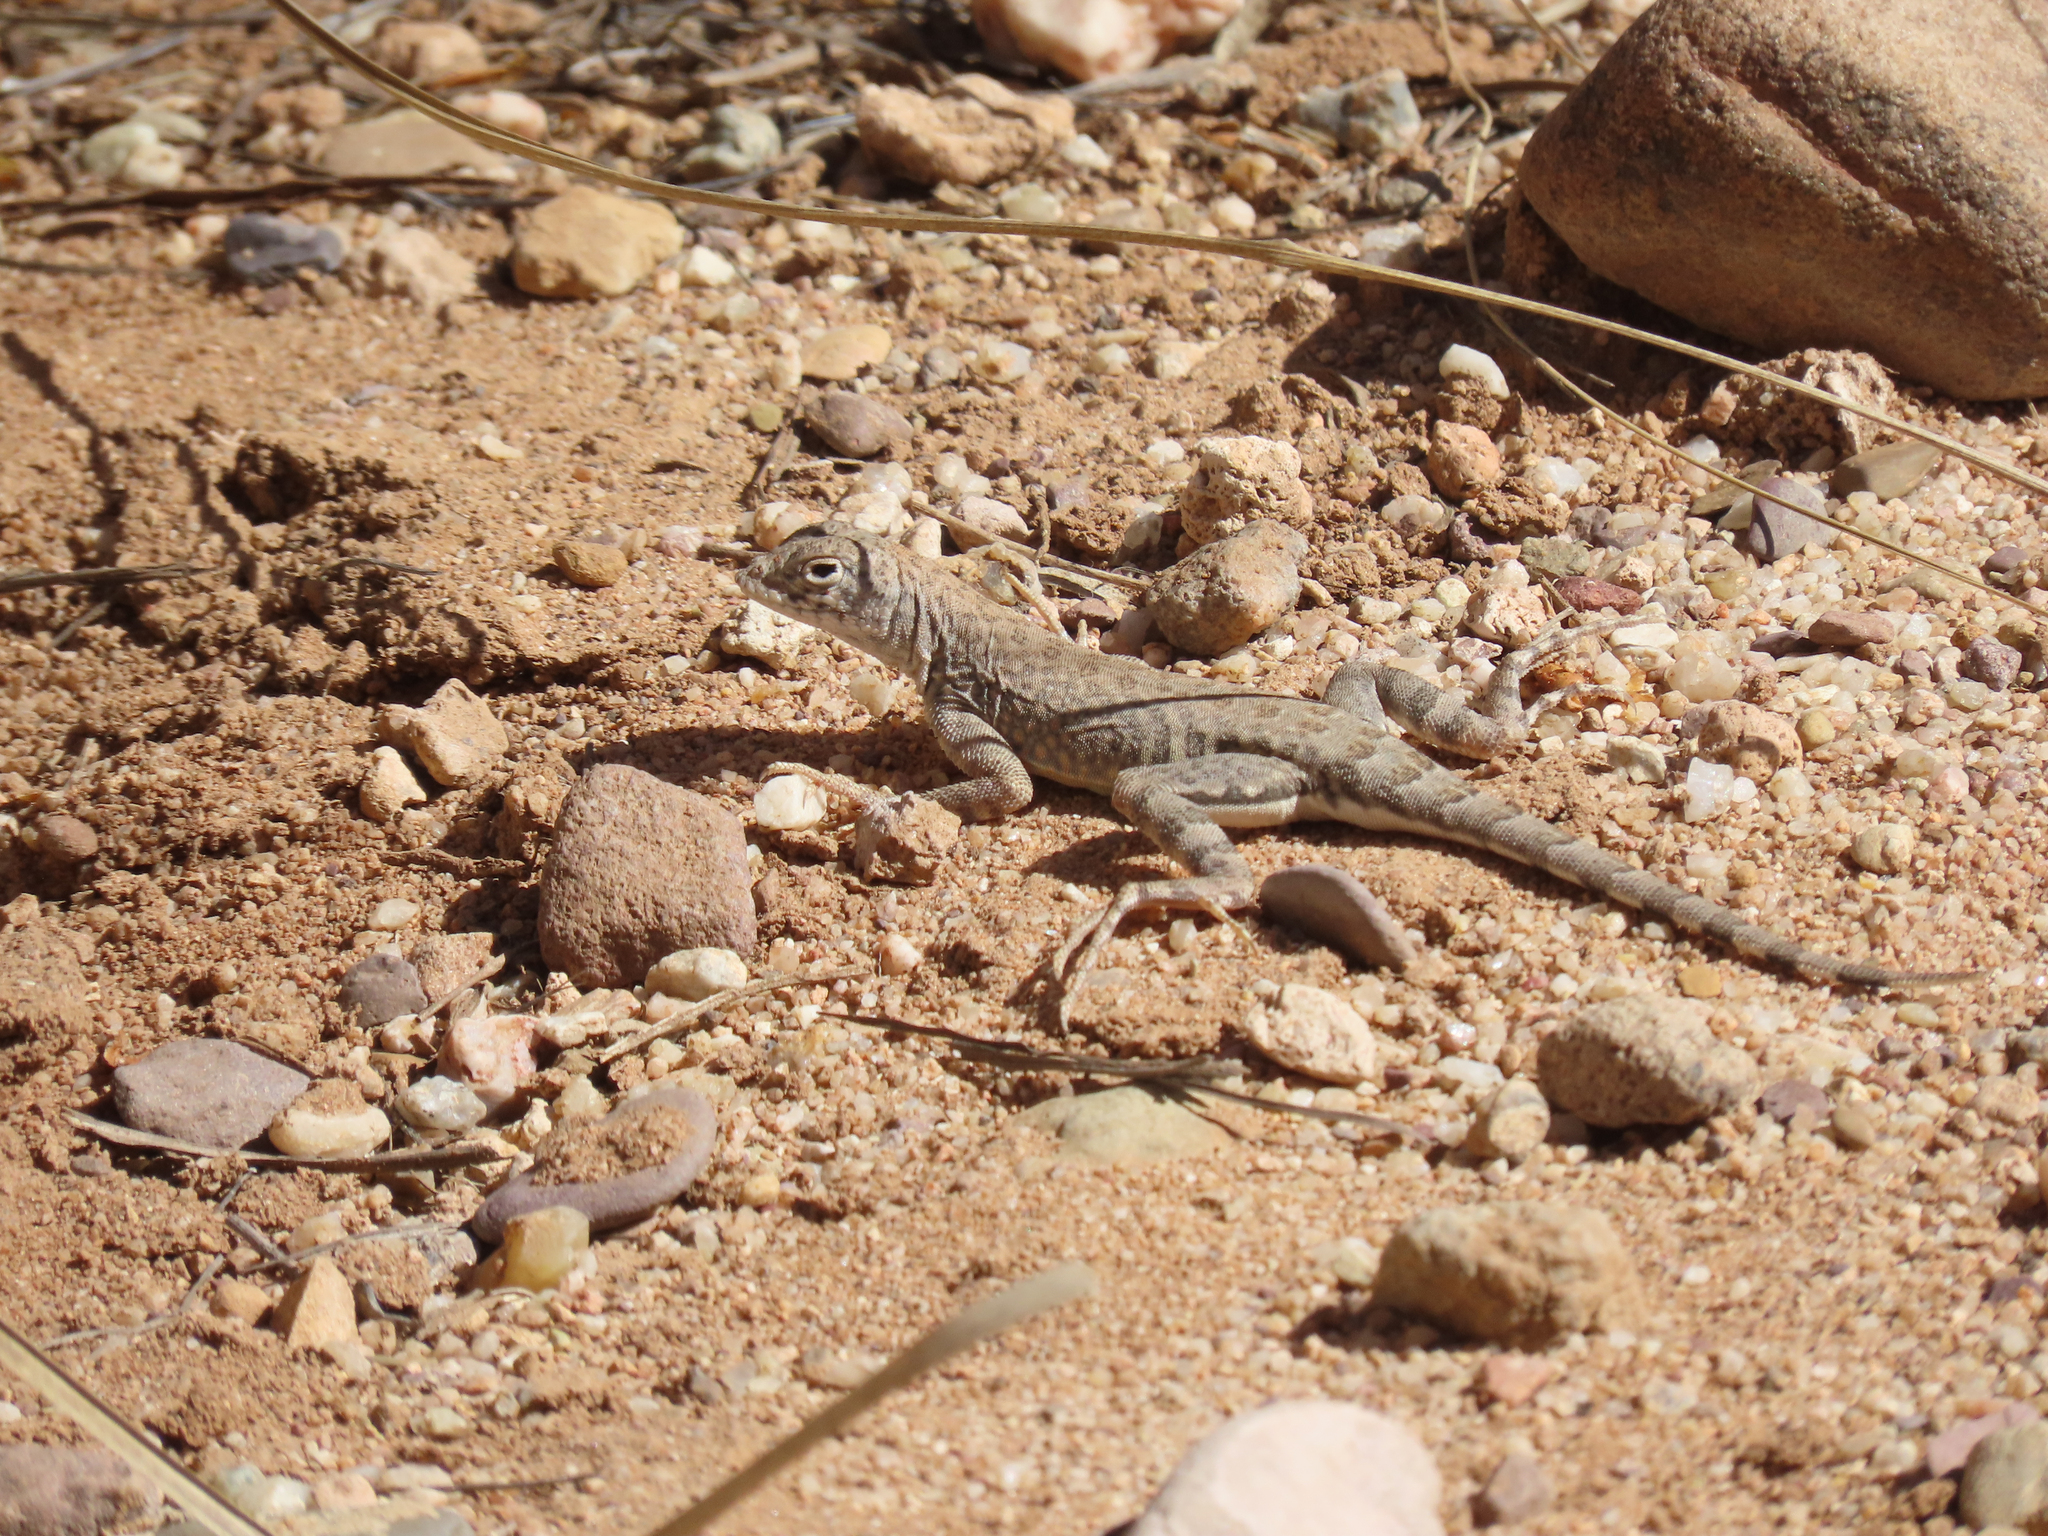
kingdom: Animalia
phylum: Chordata
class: Squamata
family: Phrynosomatidae
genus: Cophosaurus
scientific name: Cophosaurus texanus
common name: Greater earless lizard
